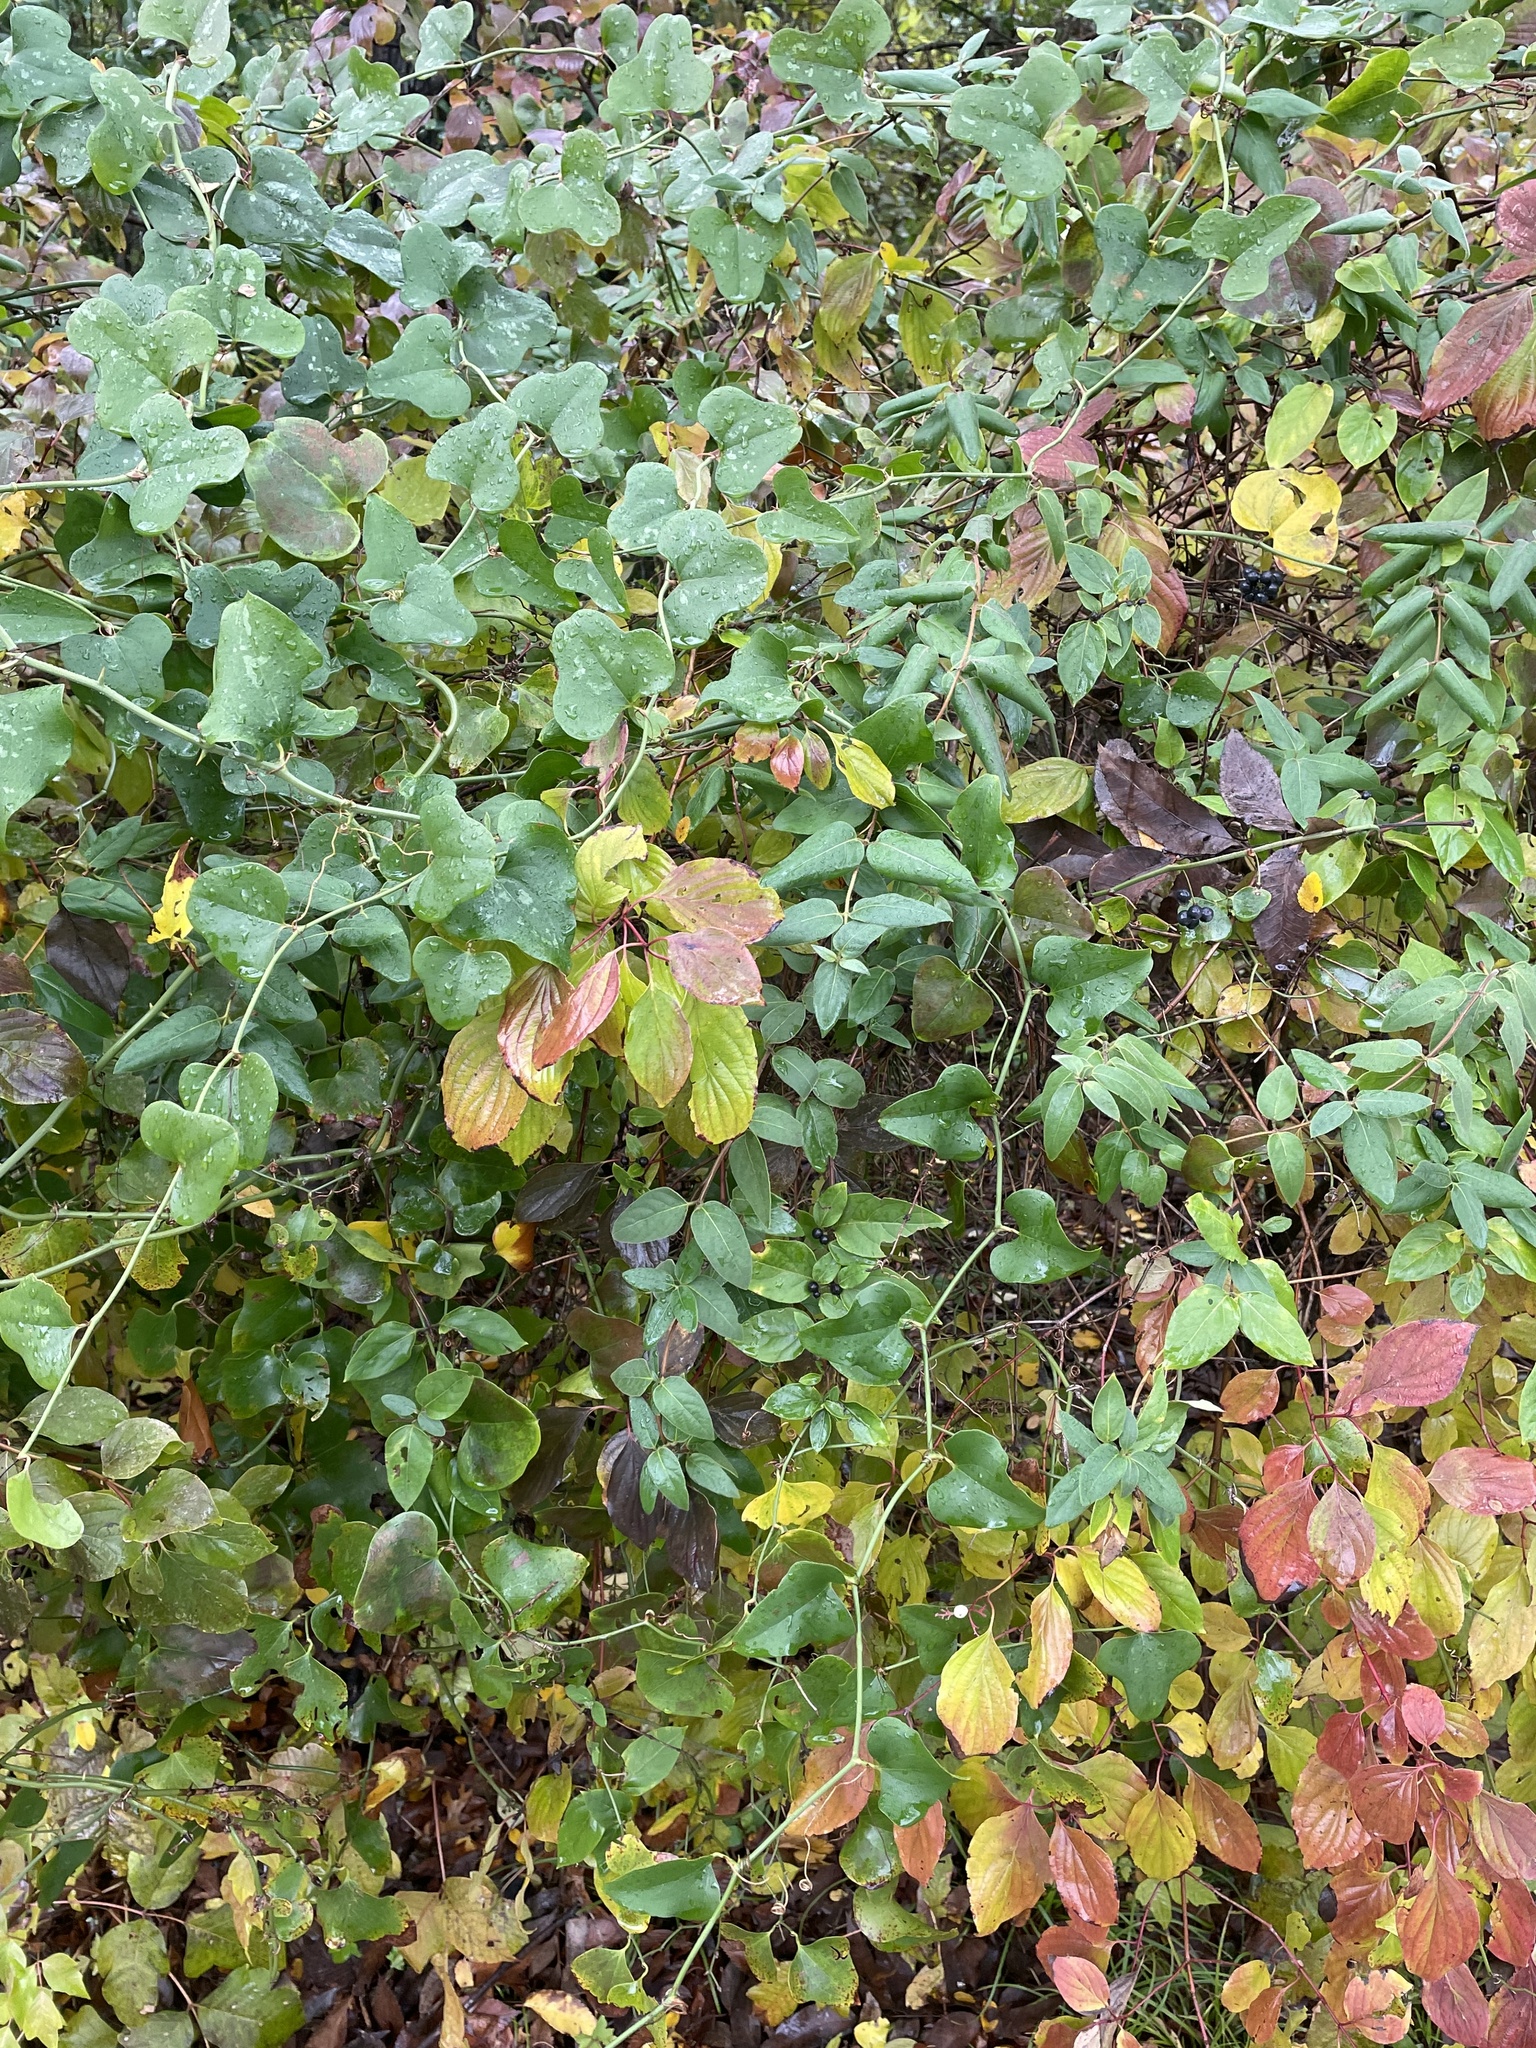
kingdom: Plantae
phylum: Tracheophyta
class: Magnoliopsida
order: Dipsacales
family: Caprifoliaceae
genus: Lonicera
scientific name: Lonicera japonica
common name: Japanese honeysuckle
